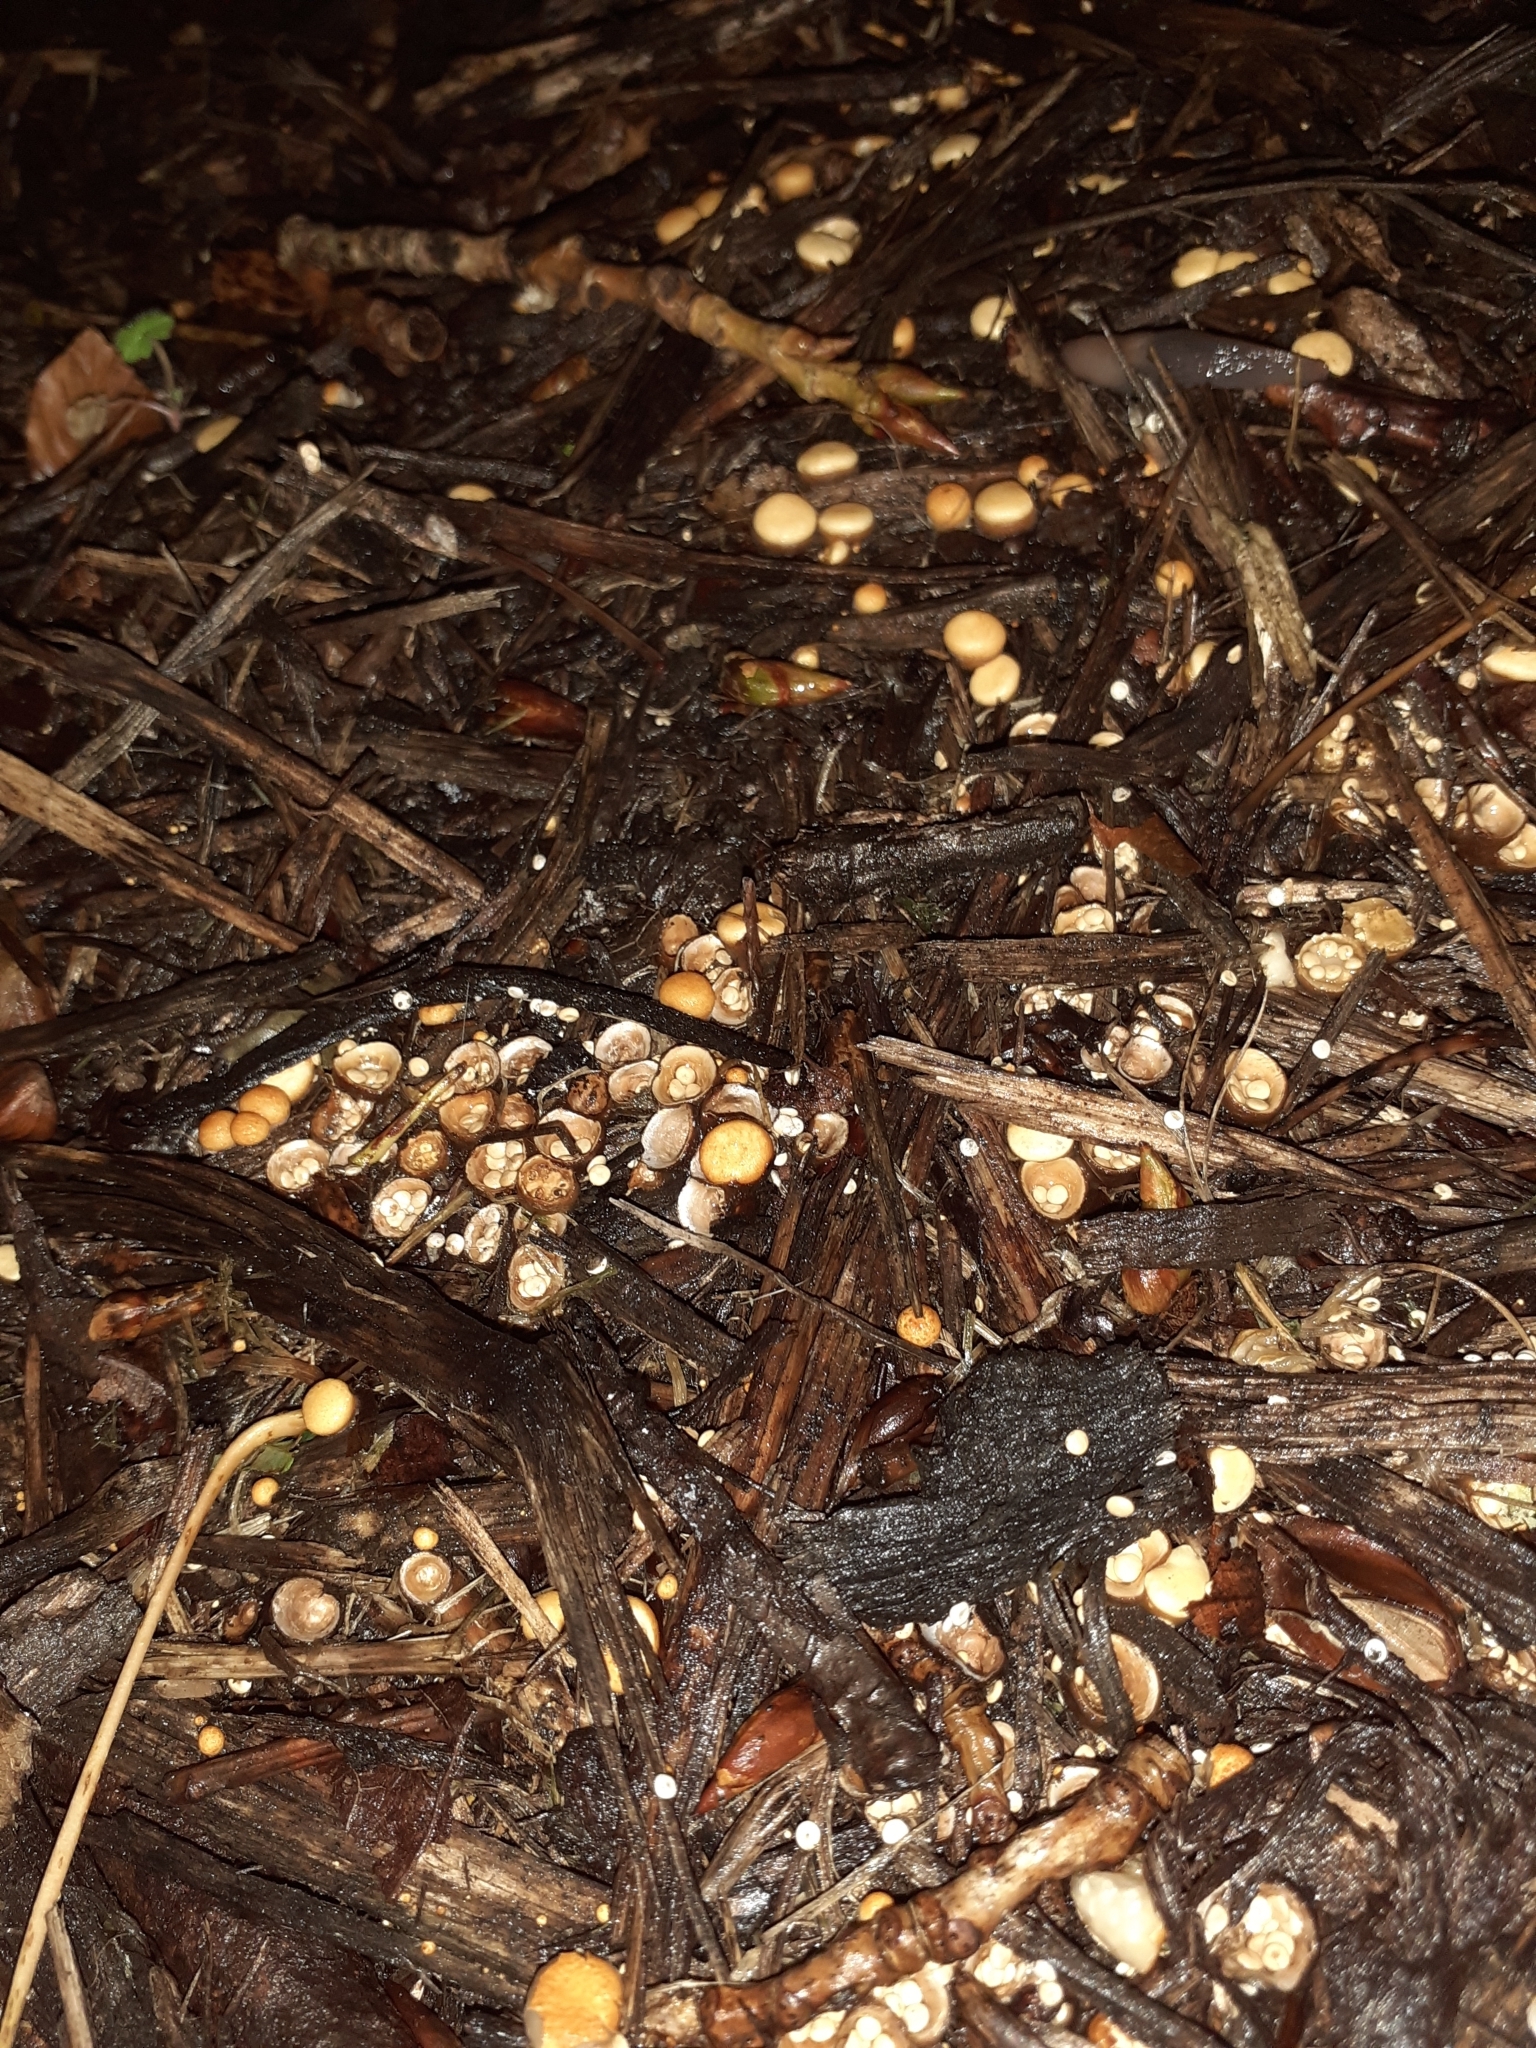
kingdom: Fungi
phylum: Basidiomycota
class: Agaricomycetes
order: Agaricales
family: Nidulariaceae
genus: Crucibulum
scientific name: Crucibulum laeve
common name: Common bird's nest
